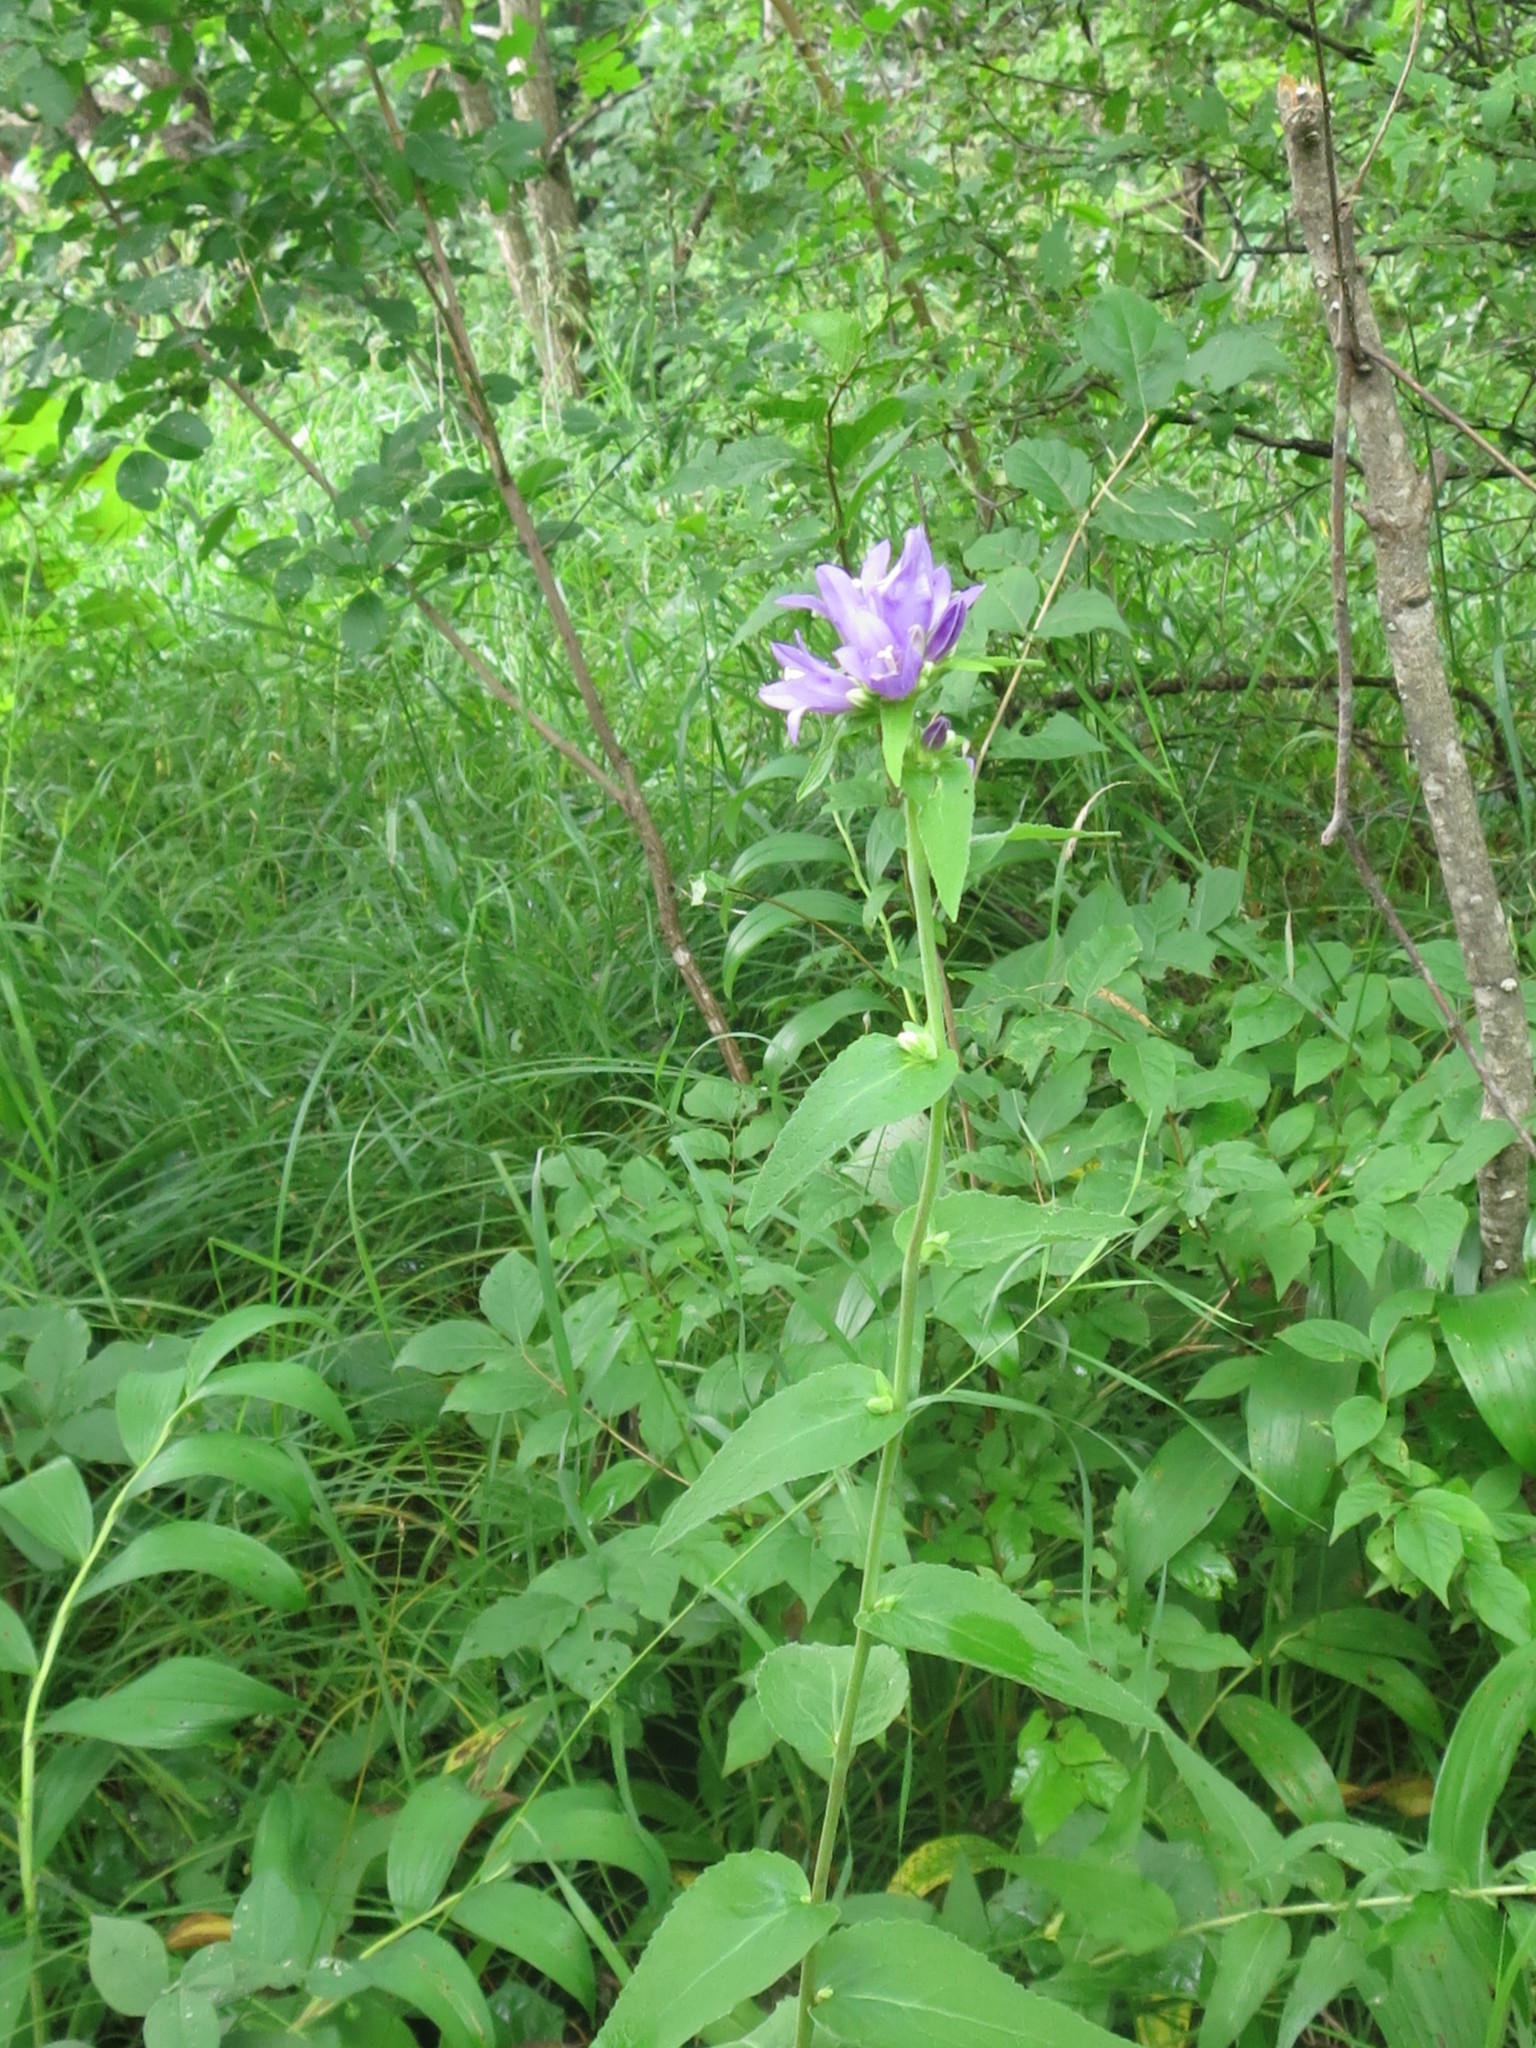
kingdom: Plantae
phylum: Tracheophyta
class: Magnoliopsida
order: Asterales
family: Campanulaceae
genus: Campanula
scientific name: Campanula glomerata
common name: Clustered bellflower
